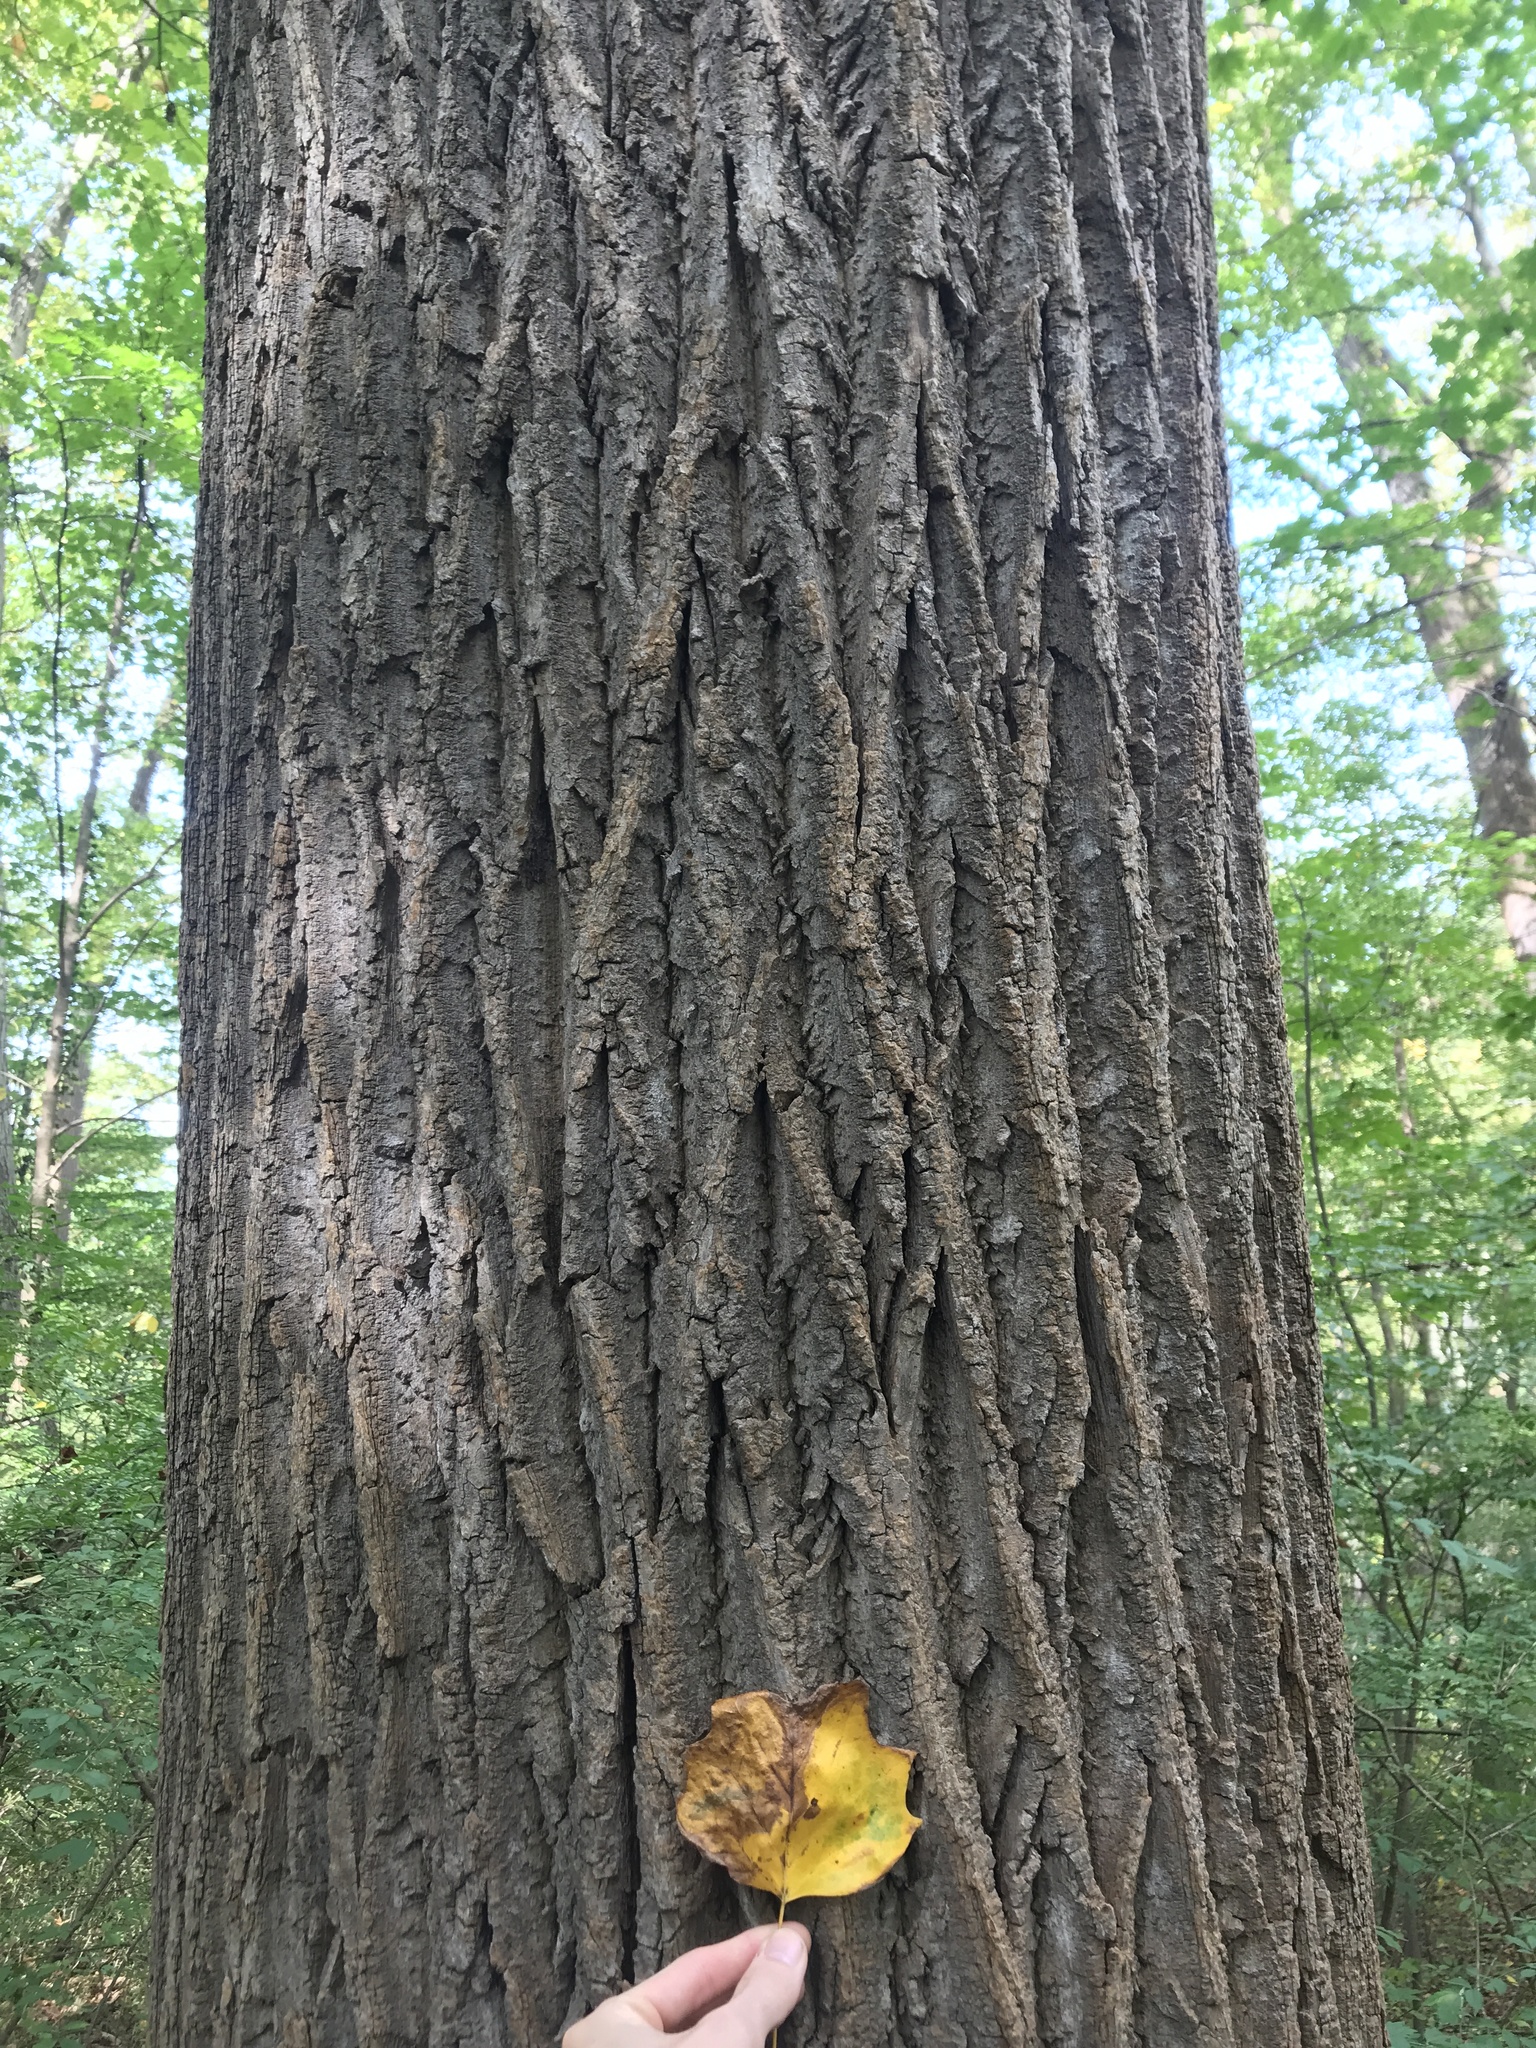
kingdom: Plantae
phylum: Tracheophyta
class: Magnoliopsida
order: Magnoliales
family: Magnoliaceae
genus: Liriodendron
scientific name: Liriodendron tulipifera
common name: Tulip tree
